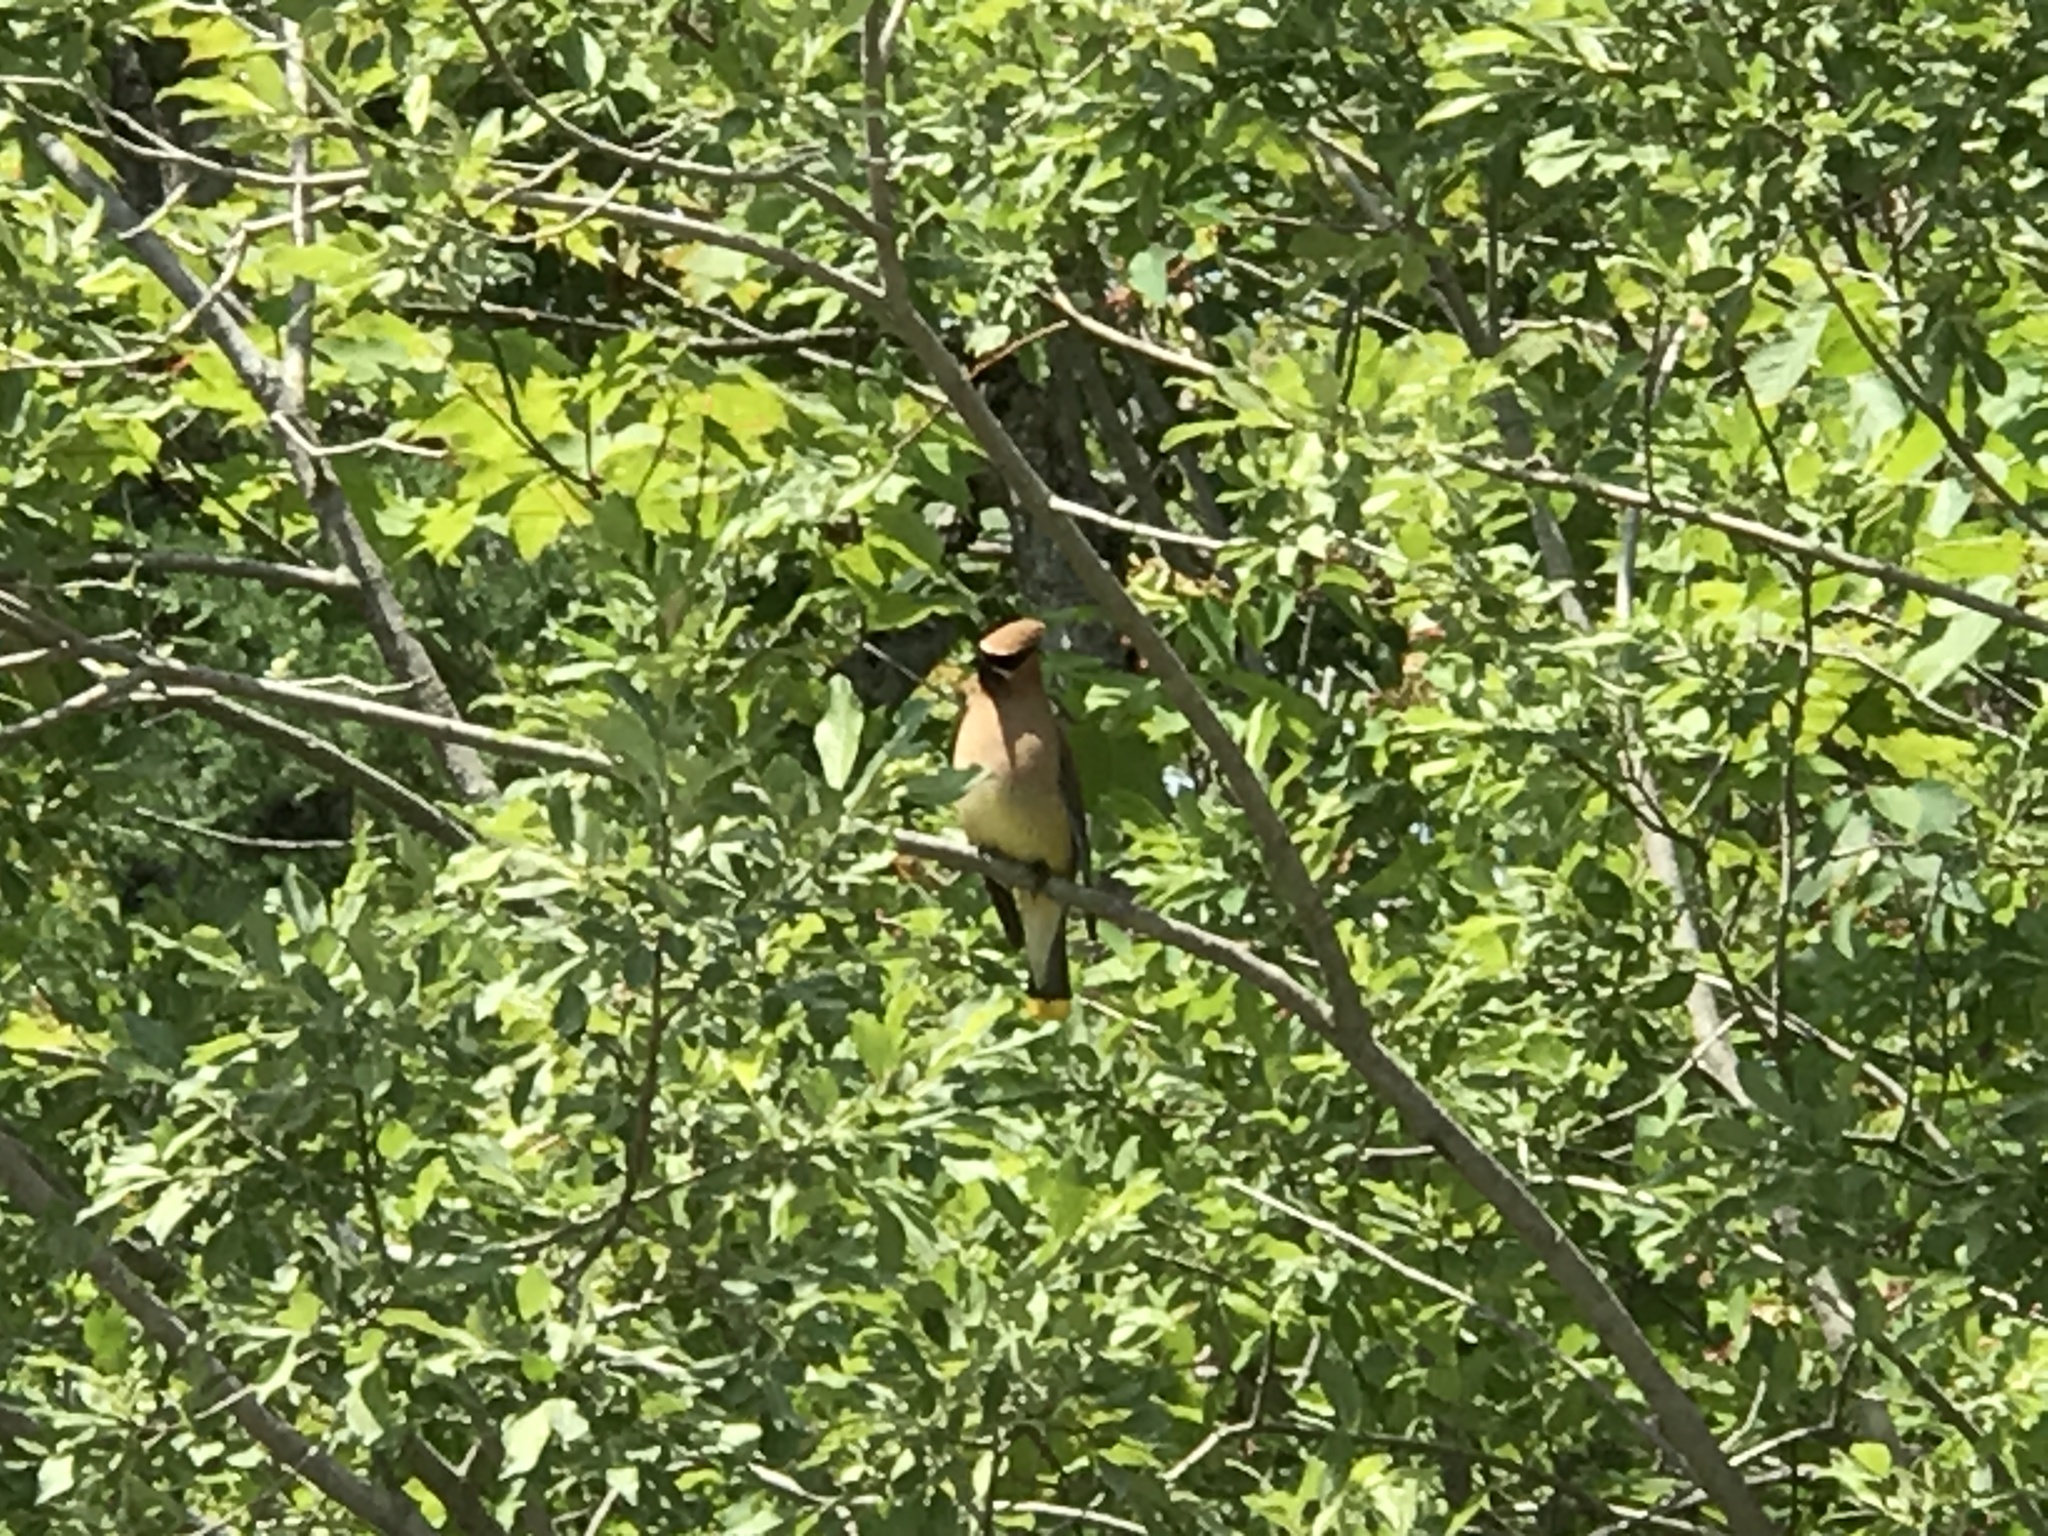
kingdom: Animalia
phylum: Chordata
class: Aves
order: Passeriformes
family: Bombycillidae
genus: Bombycilla
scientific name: Bombycilla cedrorum
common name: Cedar waxwing
